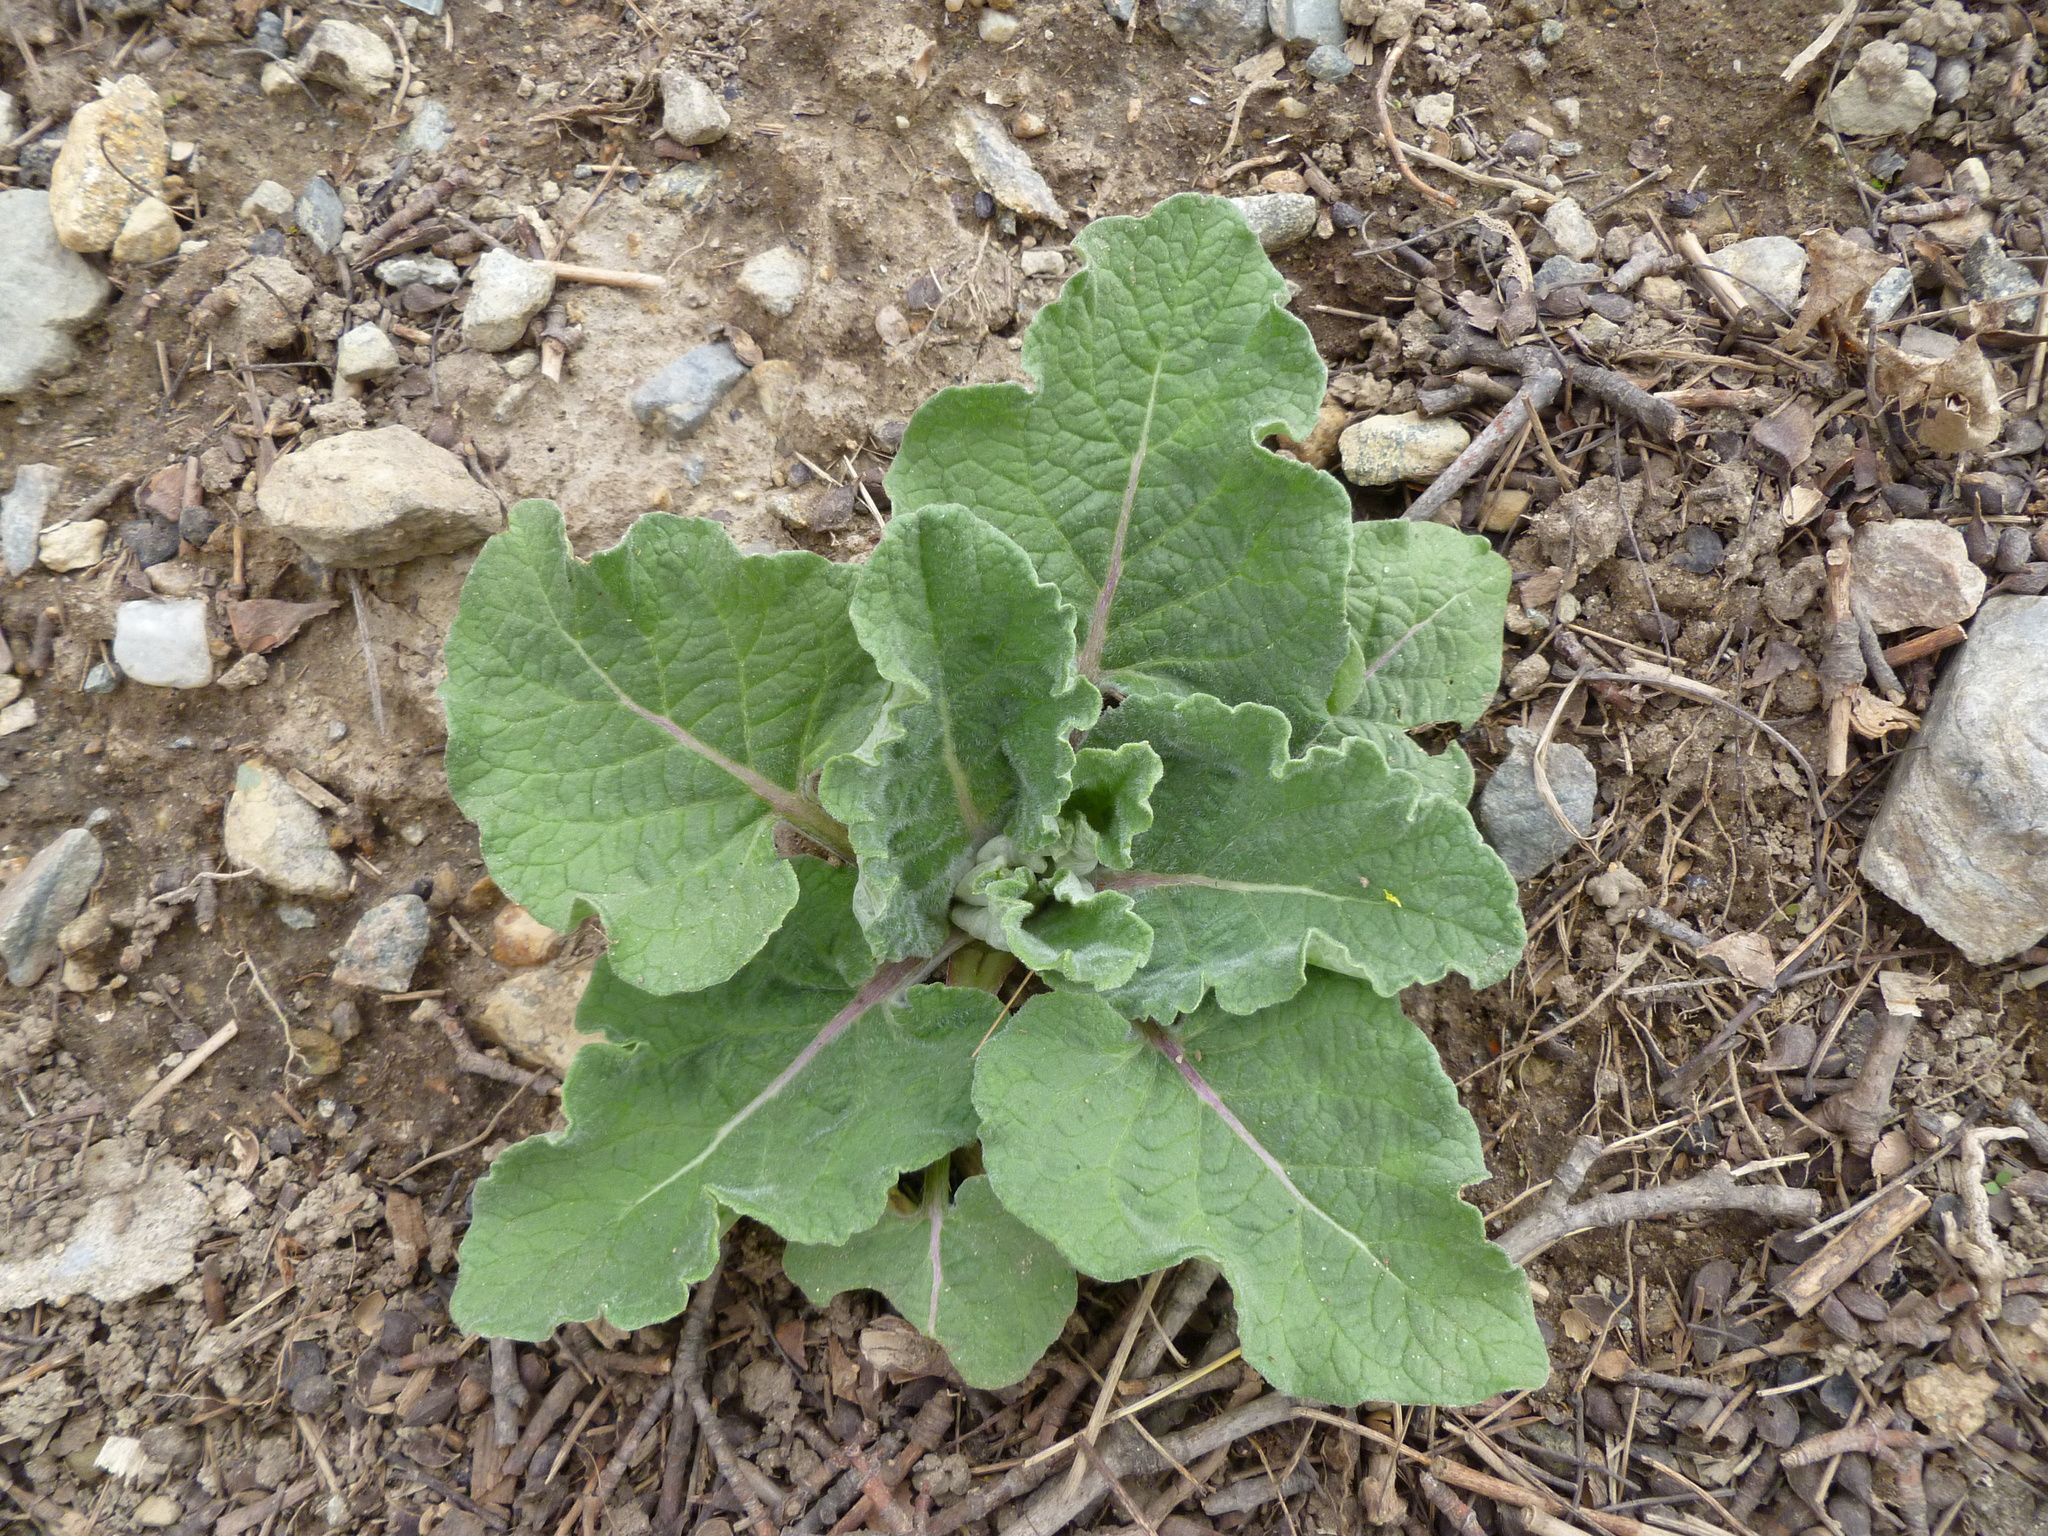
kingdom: Plantae
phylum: Tracheophyta
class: Magnoliopsida
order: Asterales
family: Asteraceae
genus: Arctium
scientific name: Arctium
